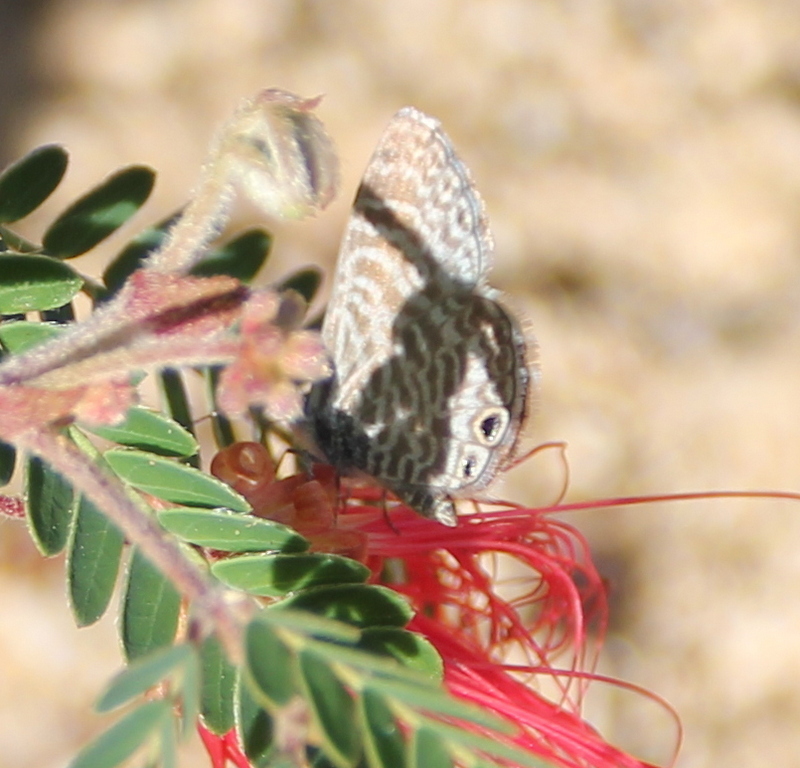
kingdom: Animalia
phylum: Arthropoda
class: Insecta
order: Lepidoptera
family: Lycaenidae
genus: Leptotes
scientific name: Leptotes marina
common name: Marine blue
